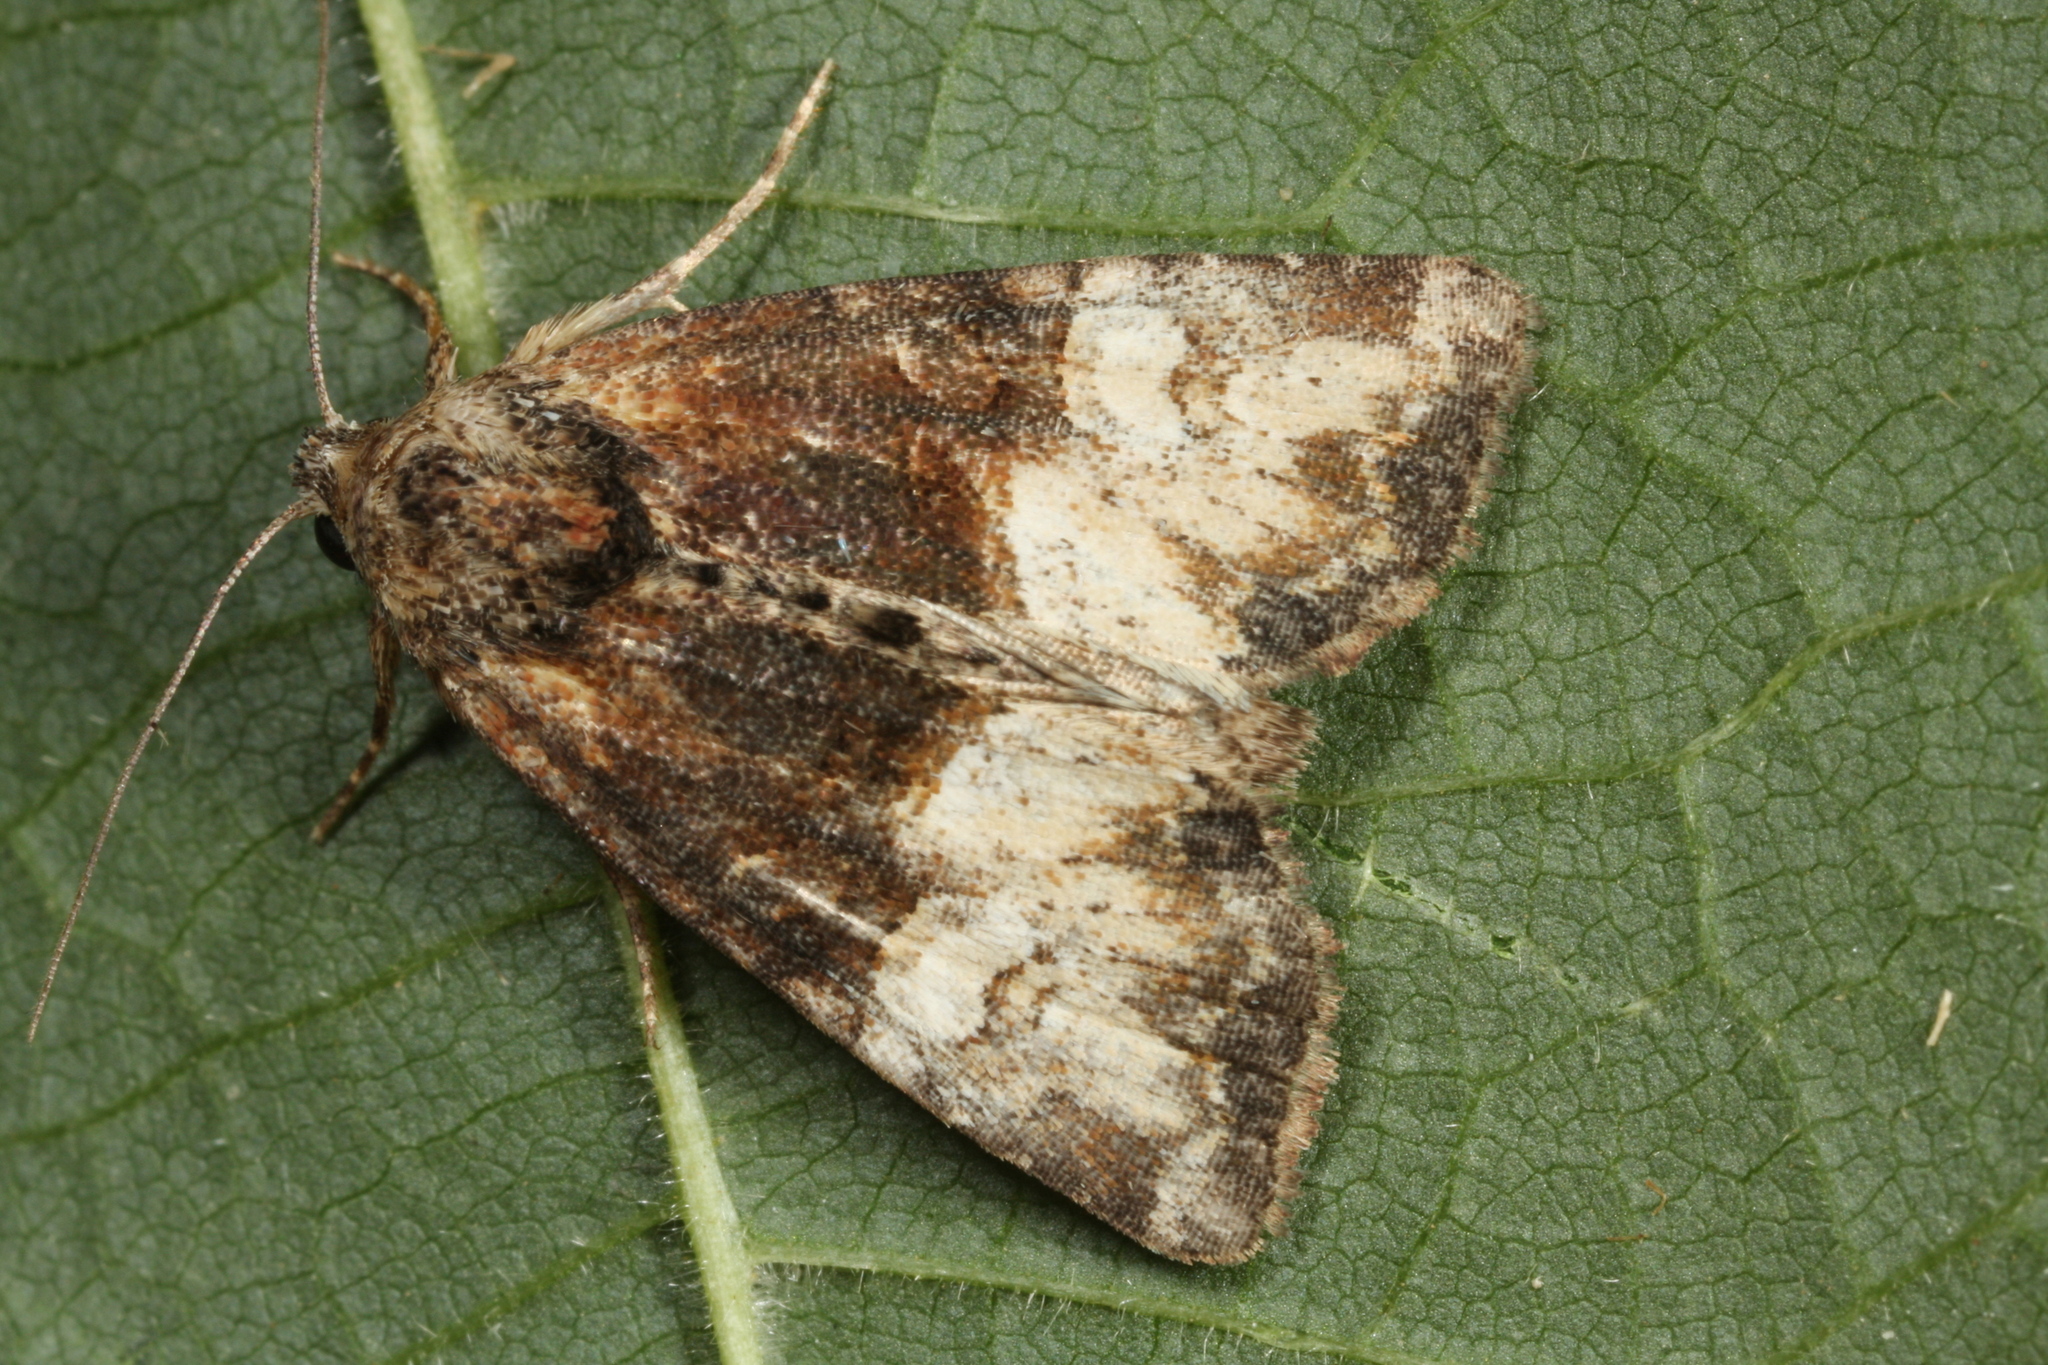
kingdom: Animalia
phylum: Arthropoda
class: Insecta
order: Lepidoptera
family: Noctuidae
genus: Mesoligia
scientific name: Mesoligia furuncula
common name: Cloaked minor
